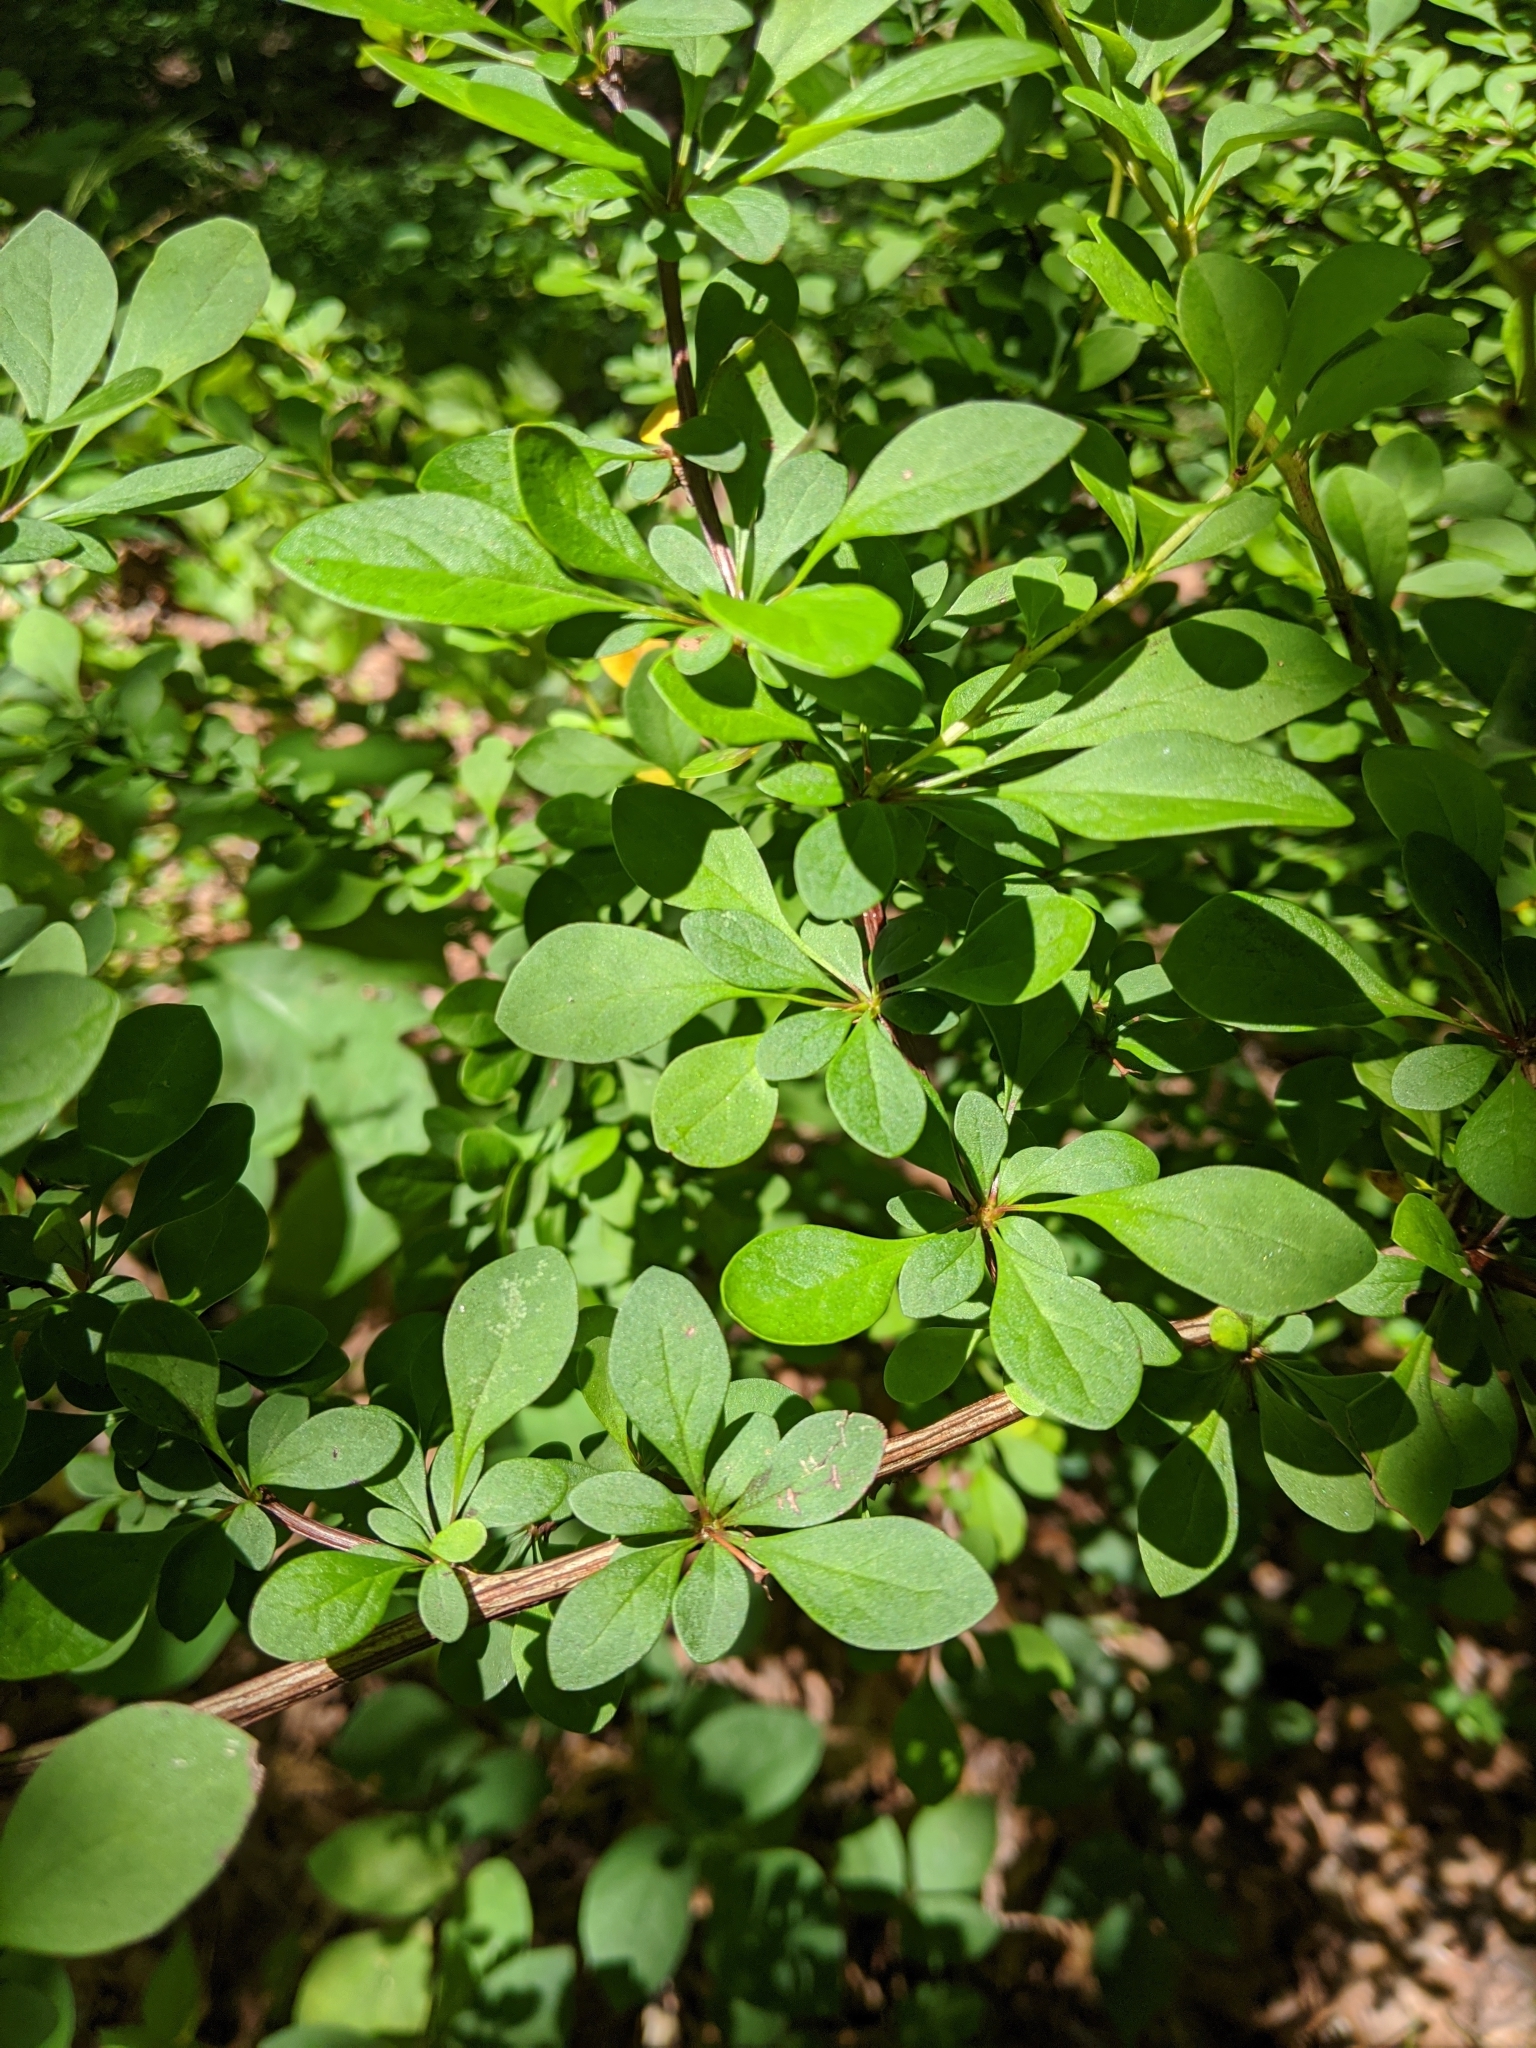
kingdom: Plantae
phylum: Tracheophyta
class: Magnoliopsida
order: Ranunculales
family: Berberidaceae
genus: Berberis
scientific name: Berberis thunbergii
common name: Japanese barberry
